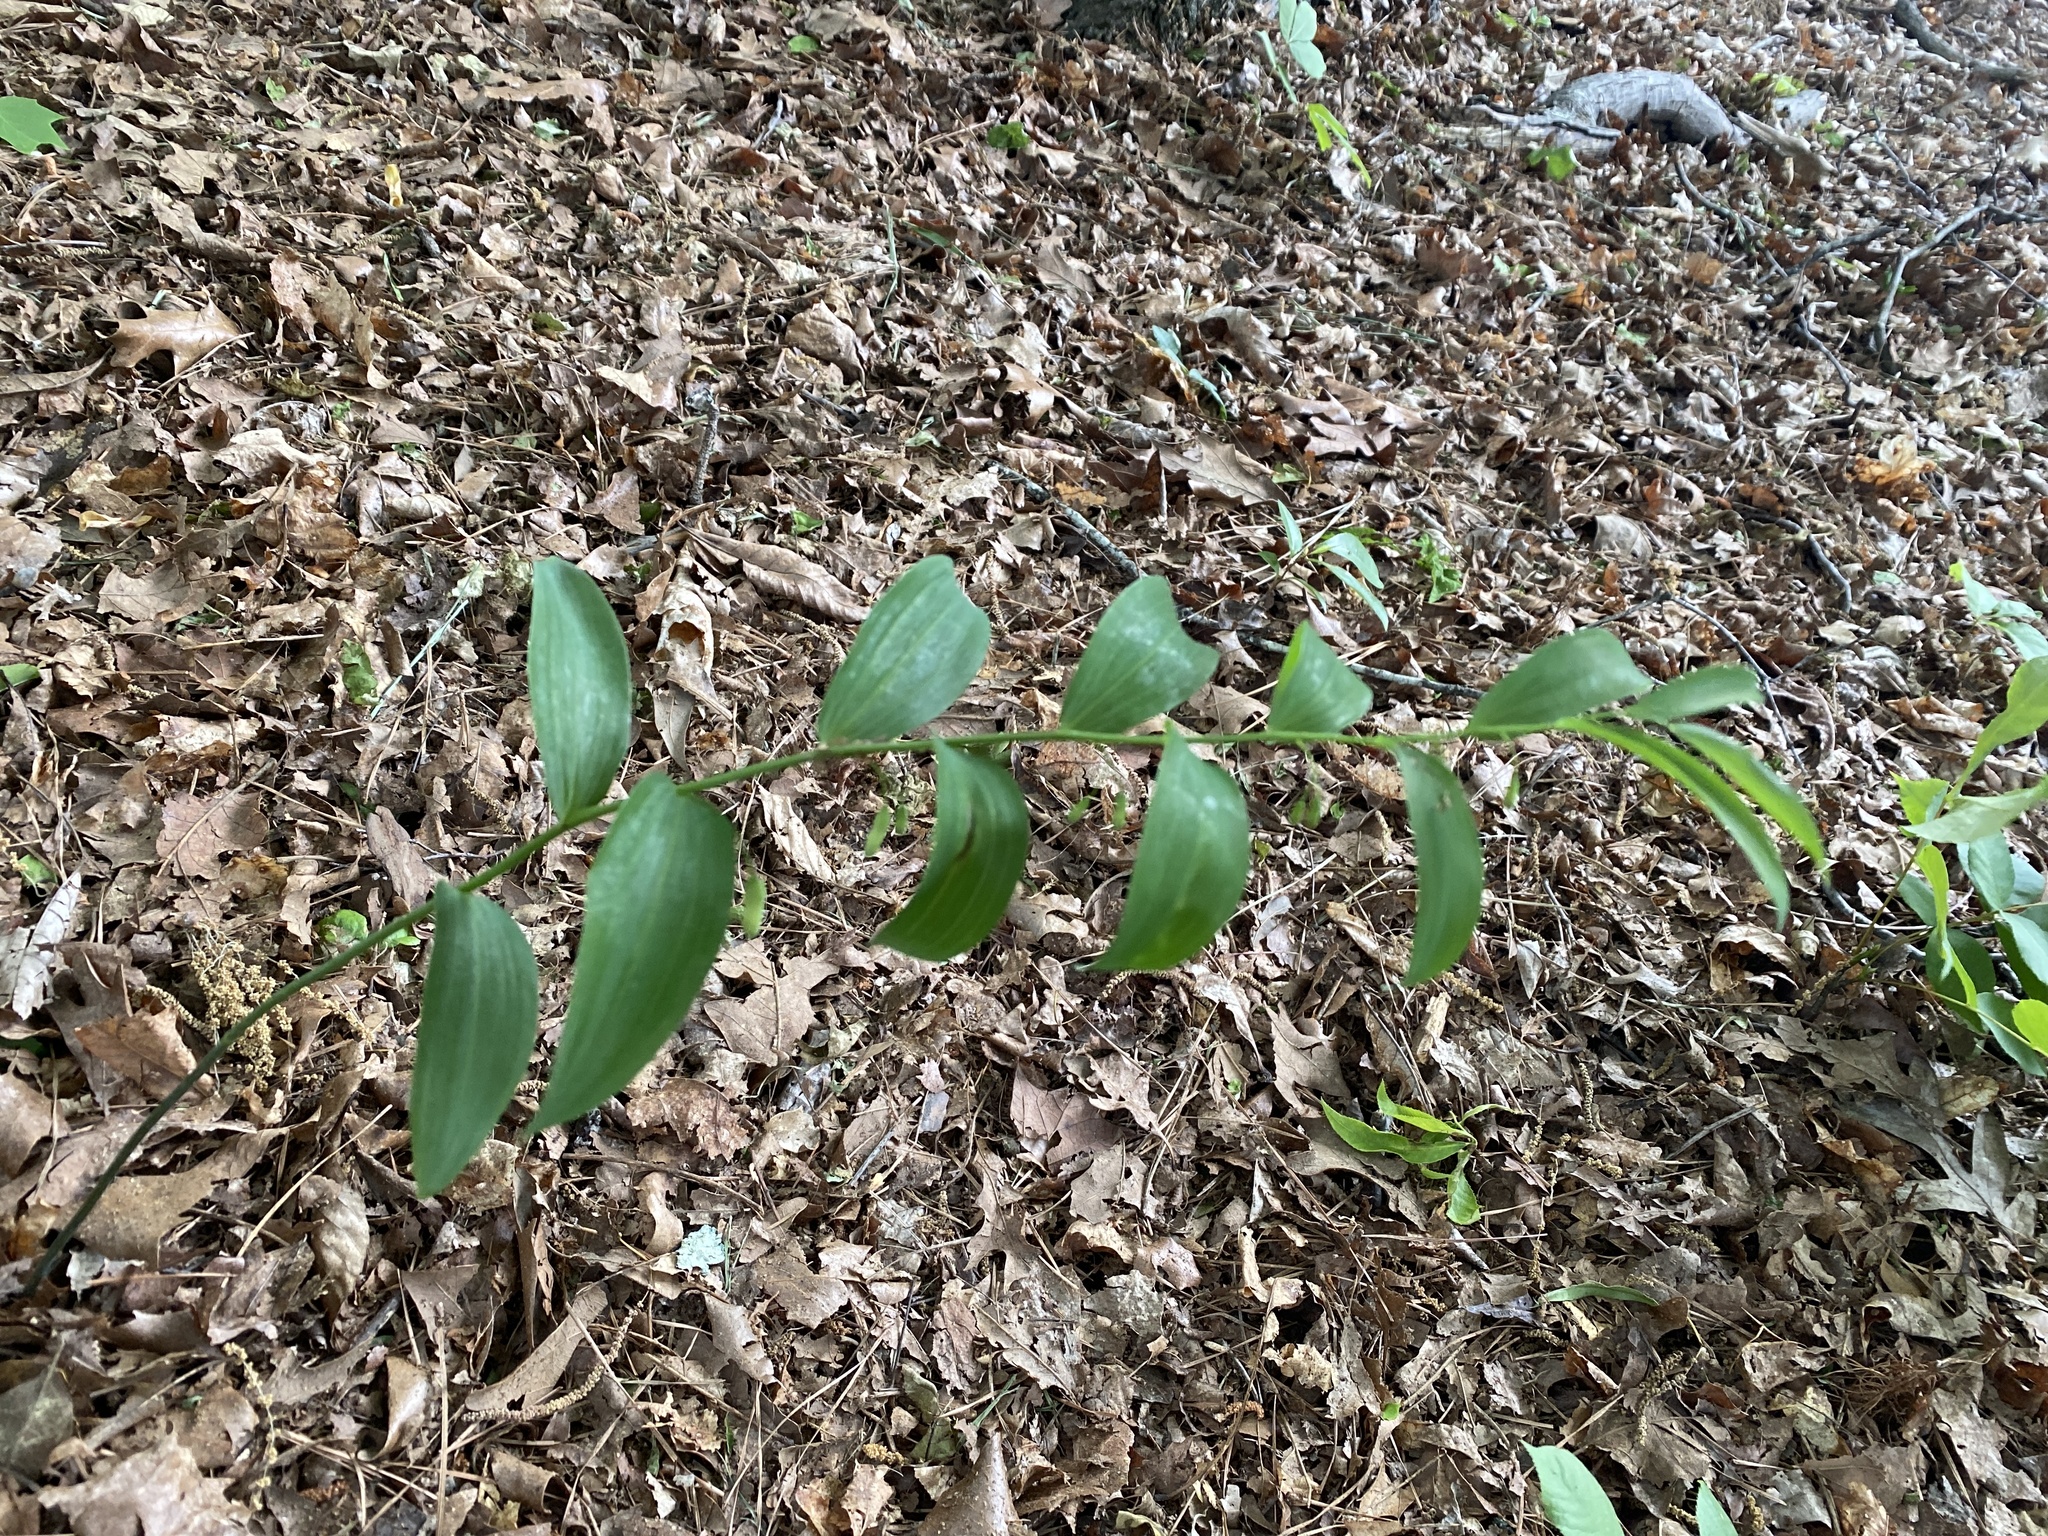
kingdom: Plantae
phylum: Tracheophyta
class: Liliopsida
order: Asparagales
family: Asparagaceae
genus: Polygonatum
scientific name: Polygonatum biflorum
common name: American solomon's-seal
